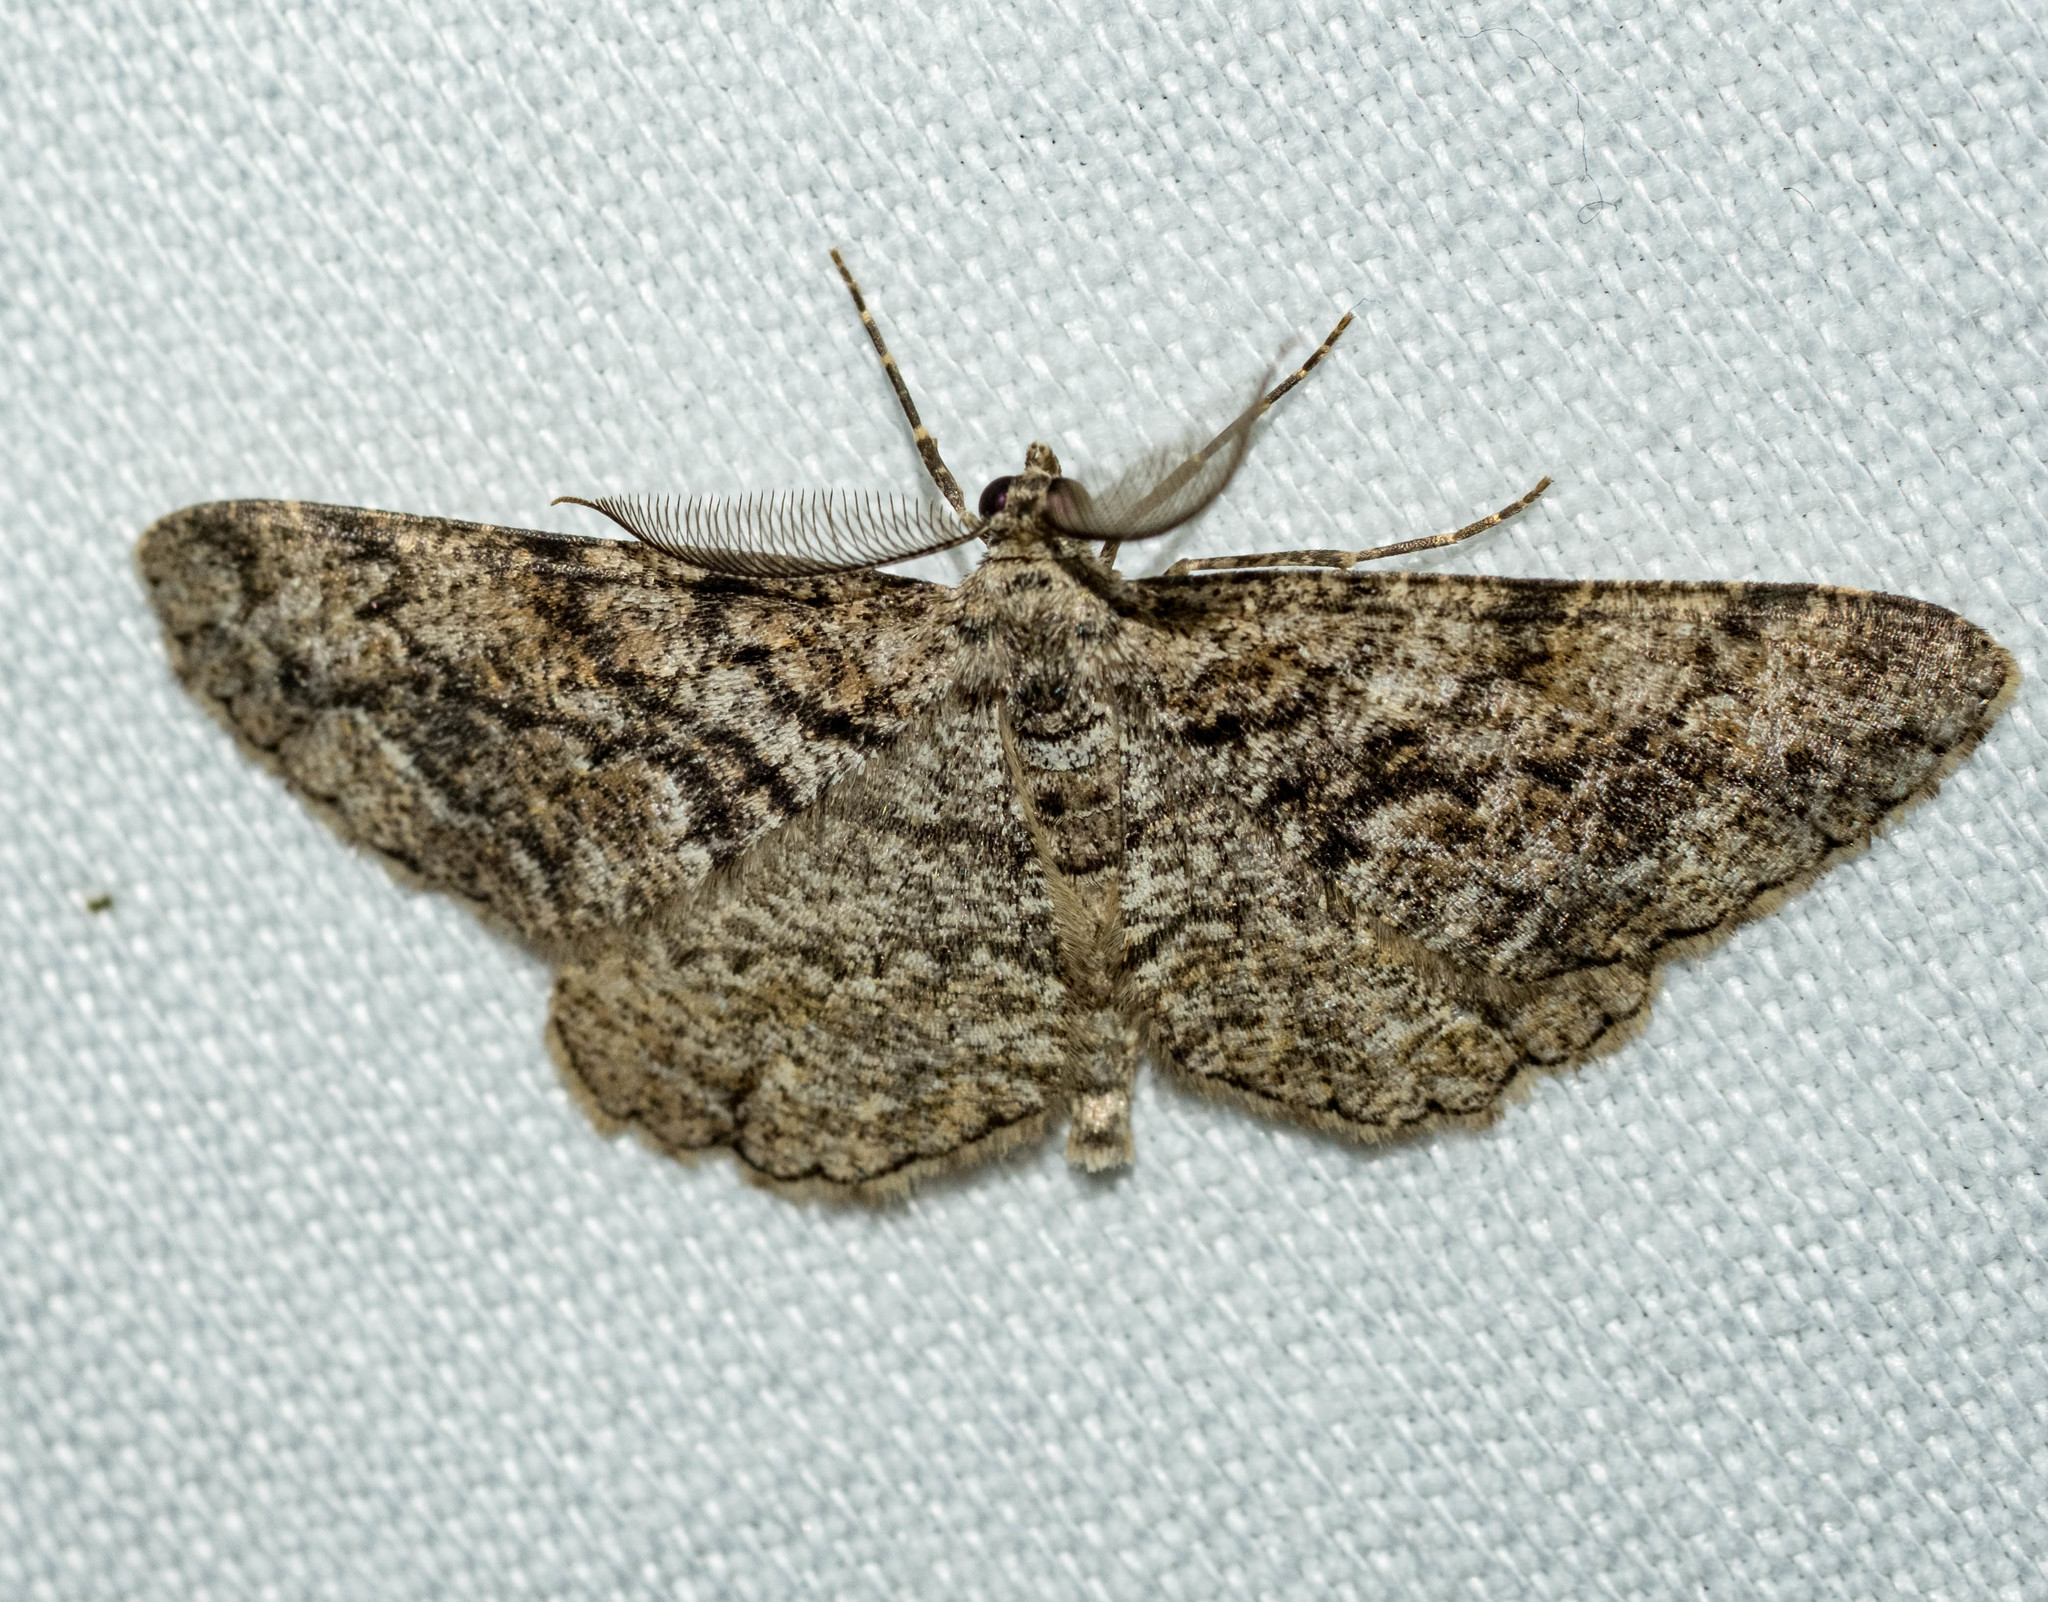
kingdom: Animalia
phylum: Arthropoda
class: Insecta
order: Lepidoptera
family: Geometridae
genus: Peribatodes
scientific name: Peribatodes secundaria
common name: Feathered beauty
